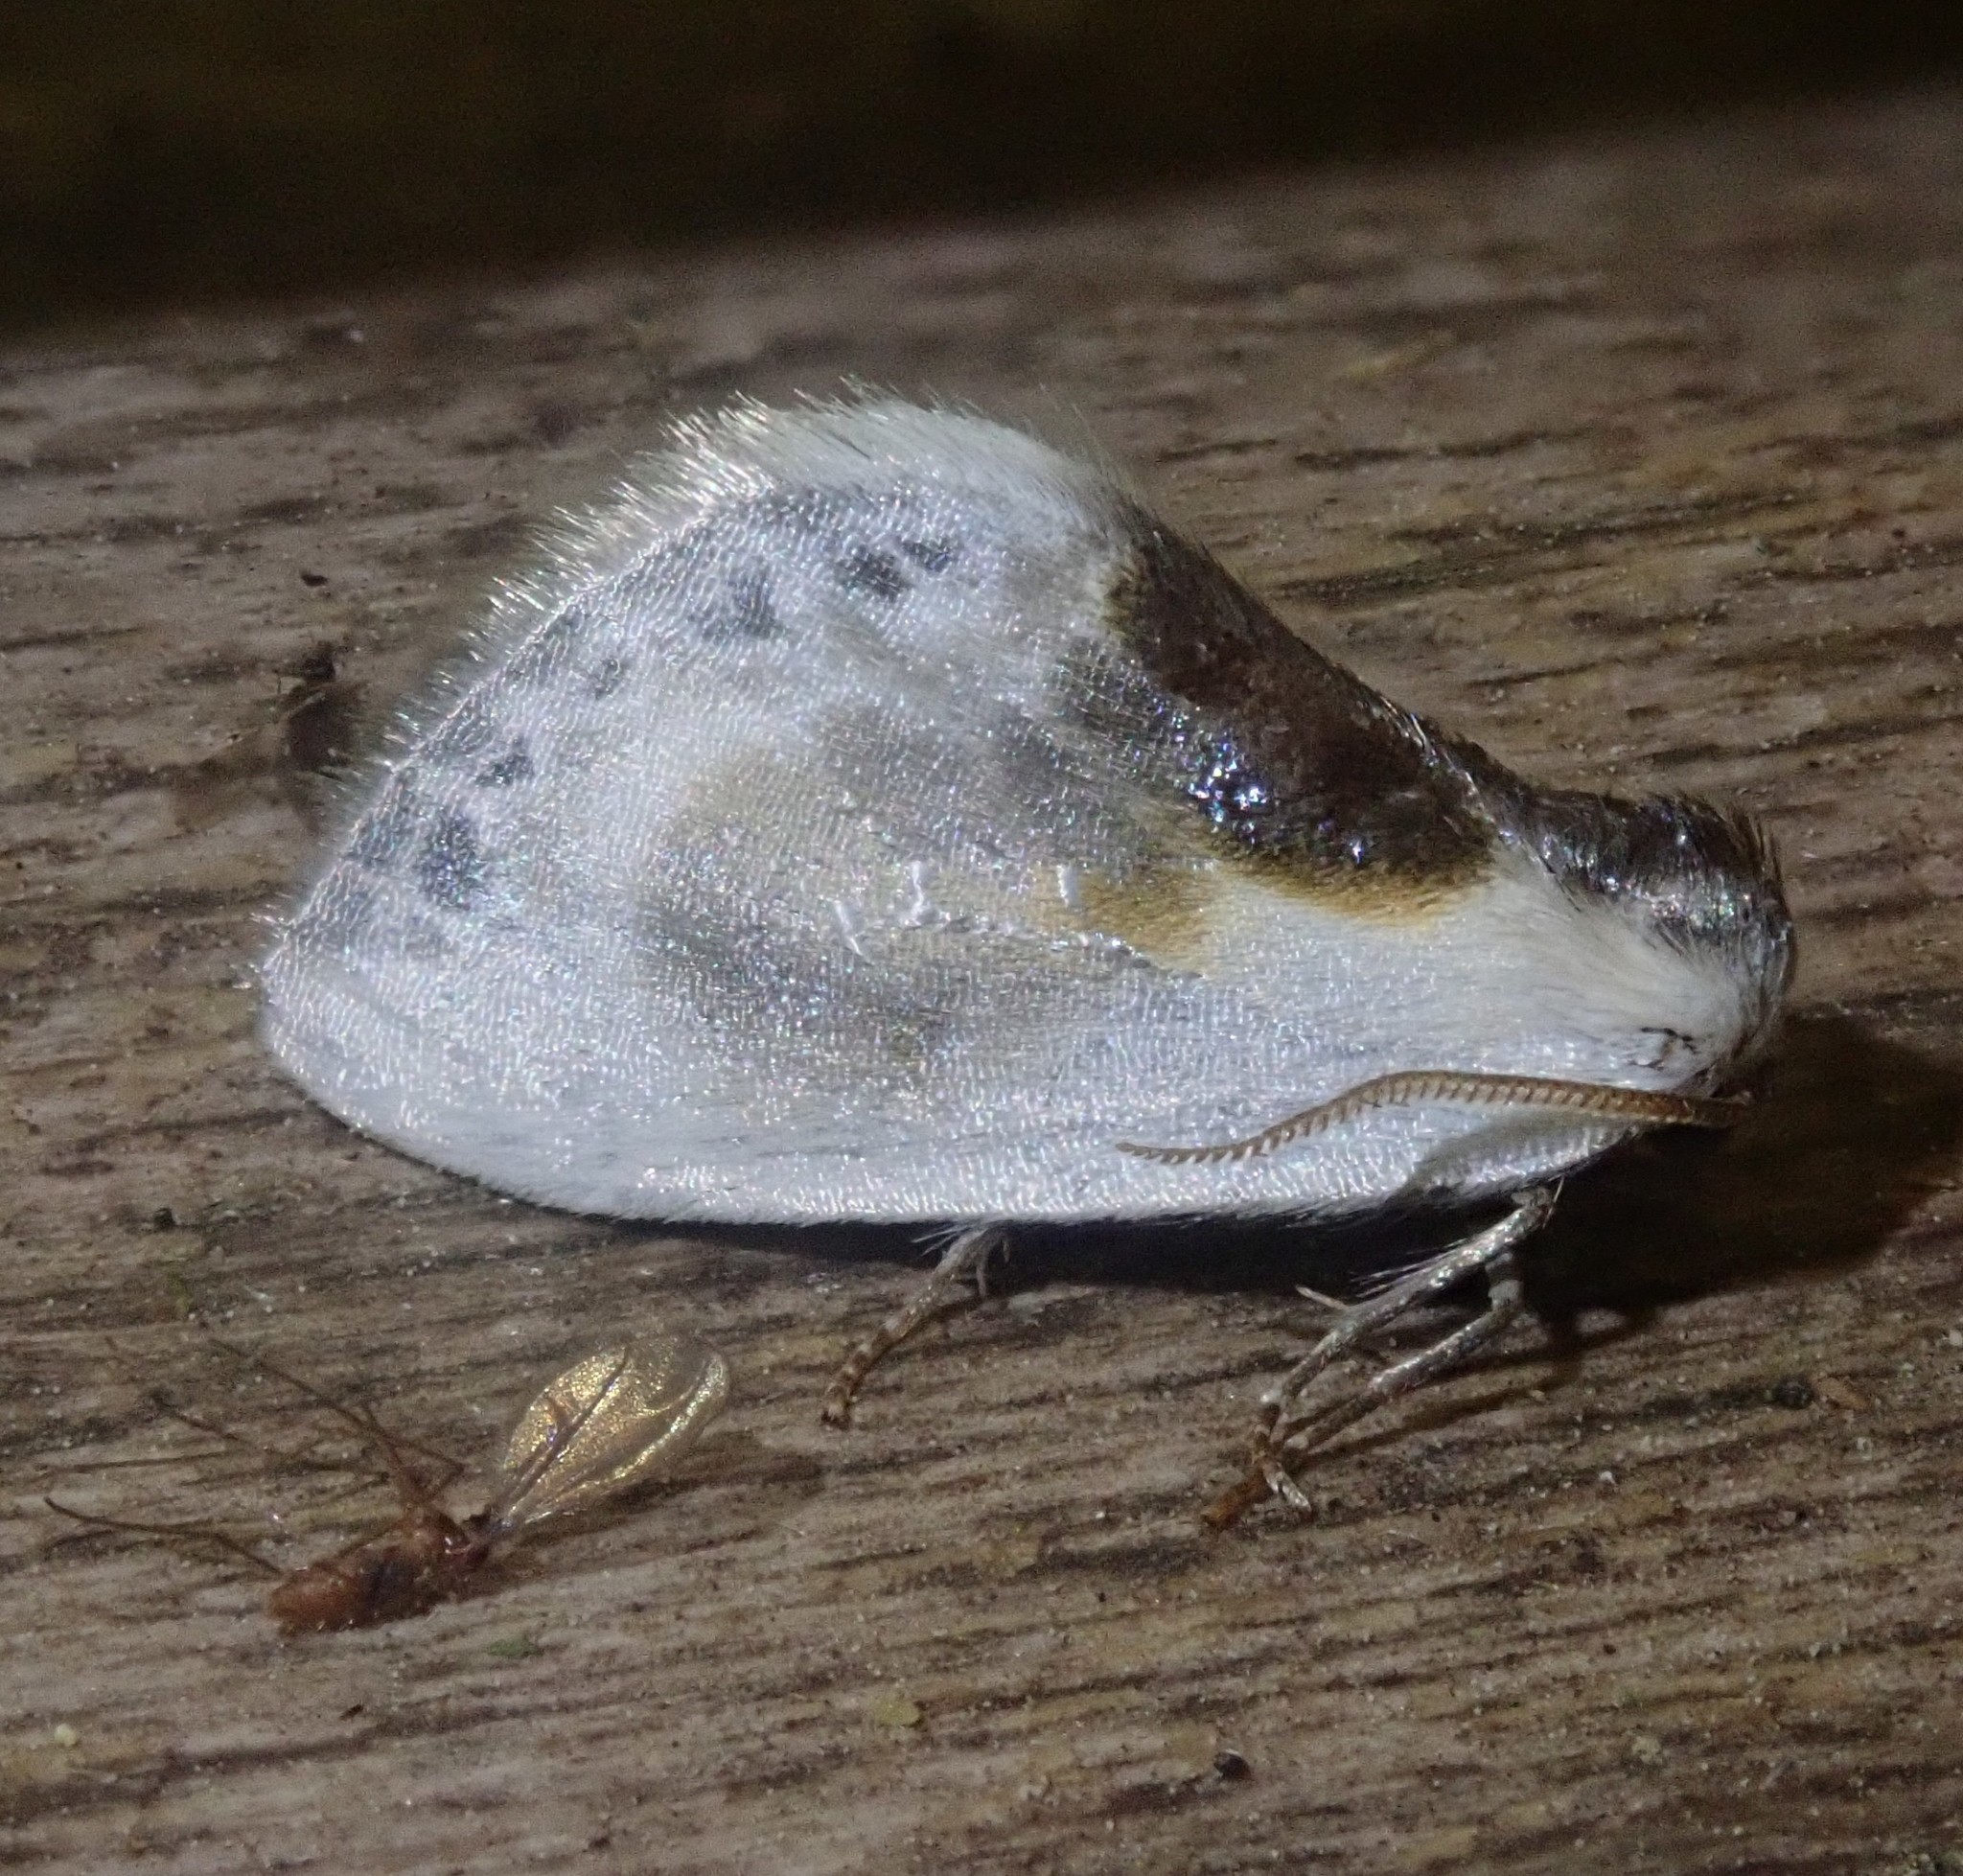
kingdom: Animalia
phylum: Arthropoda
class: Insecta
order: Lepidoptera
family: Drepanidae
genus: Cilix
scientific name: Cilix glaucata
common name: Chinese character
